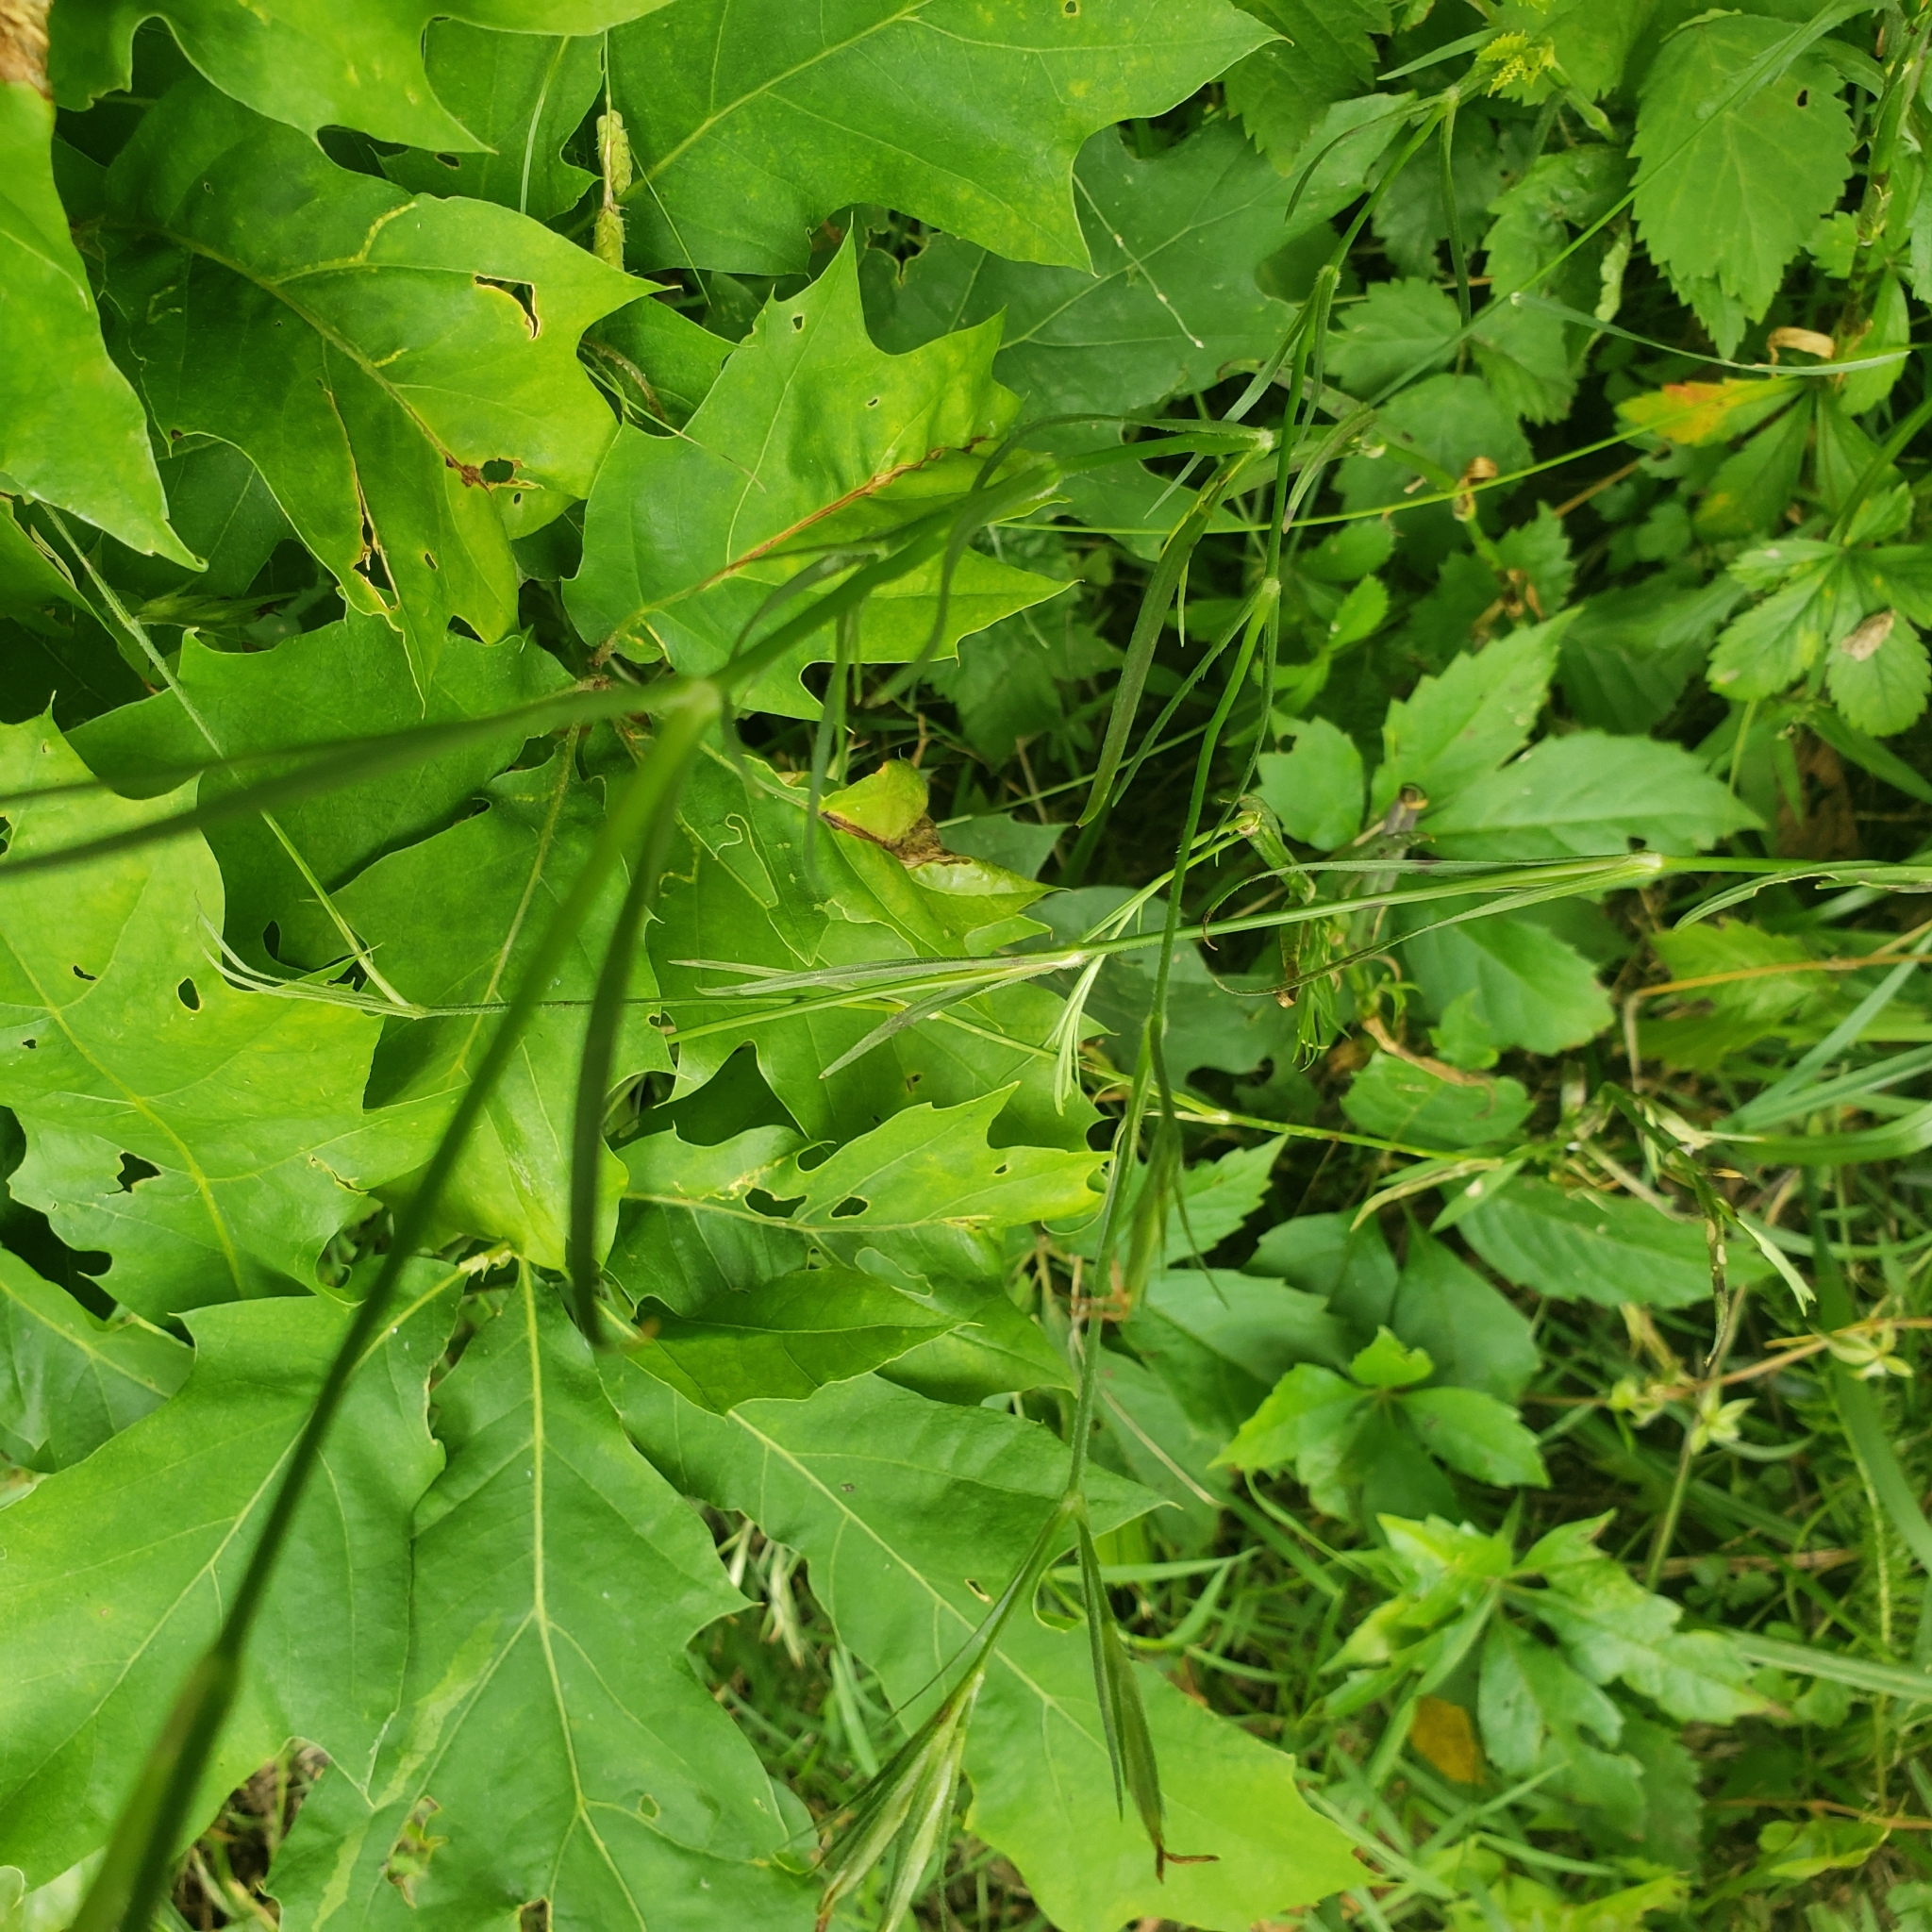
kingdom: Plantae
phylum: Tracheophyta
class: Magnoliopsida
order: Caryophyllales
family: Caryophyllaceae
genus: Dianthus
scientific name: Dianthus armeria
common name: Deptford pink
